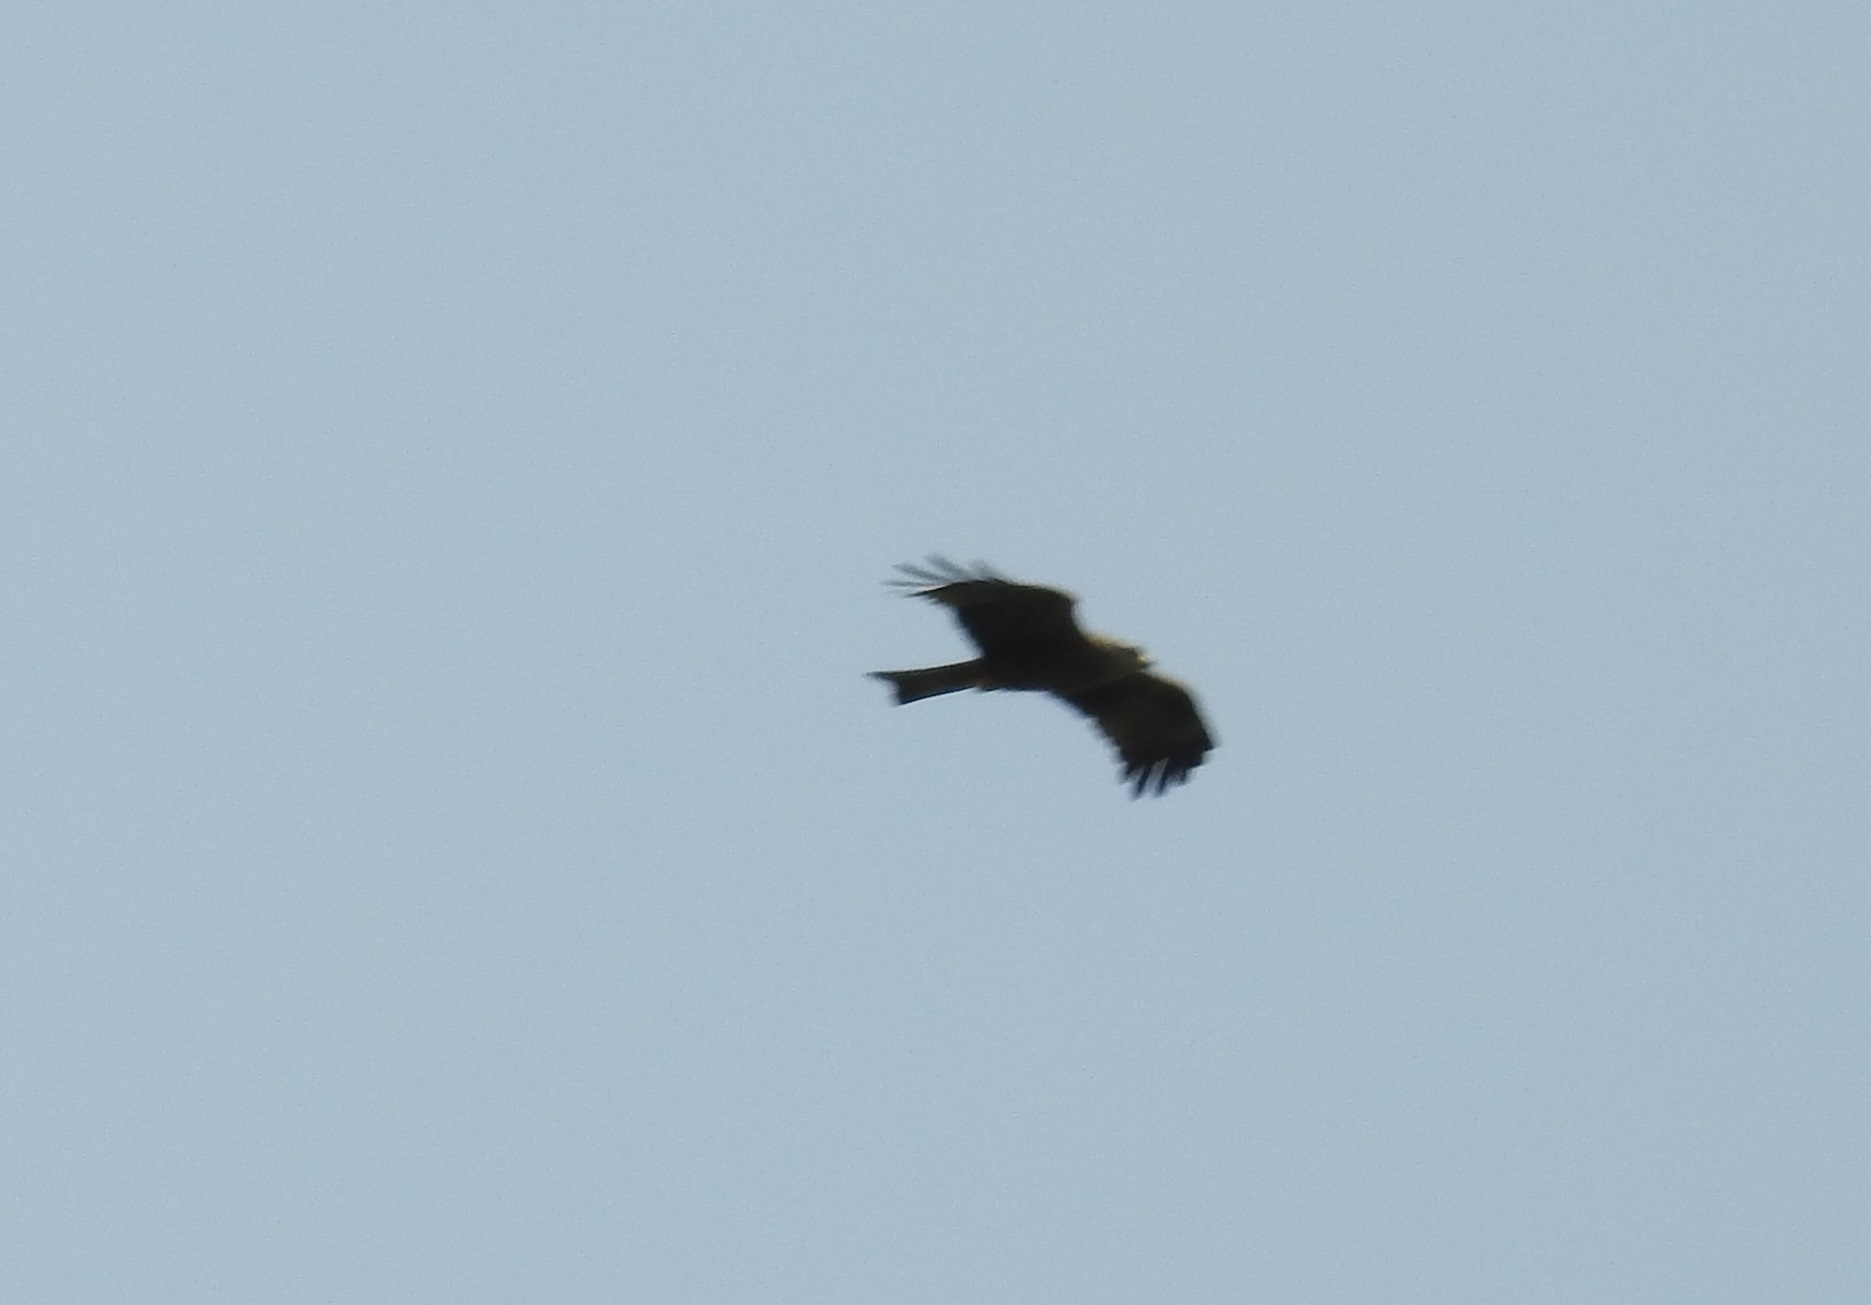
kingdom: Animalia
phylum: Chordata
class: Aves
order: Accipitriformes
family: Accipitridae
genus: Milvus
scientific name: Milvus migrans
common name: Black kite
